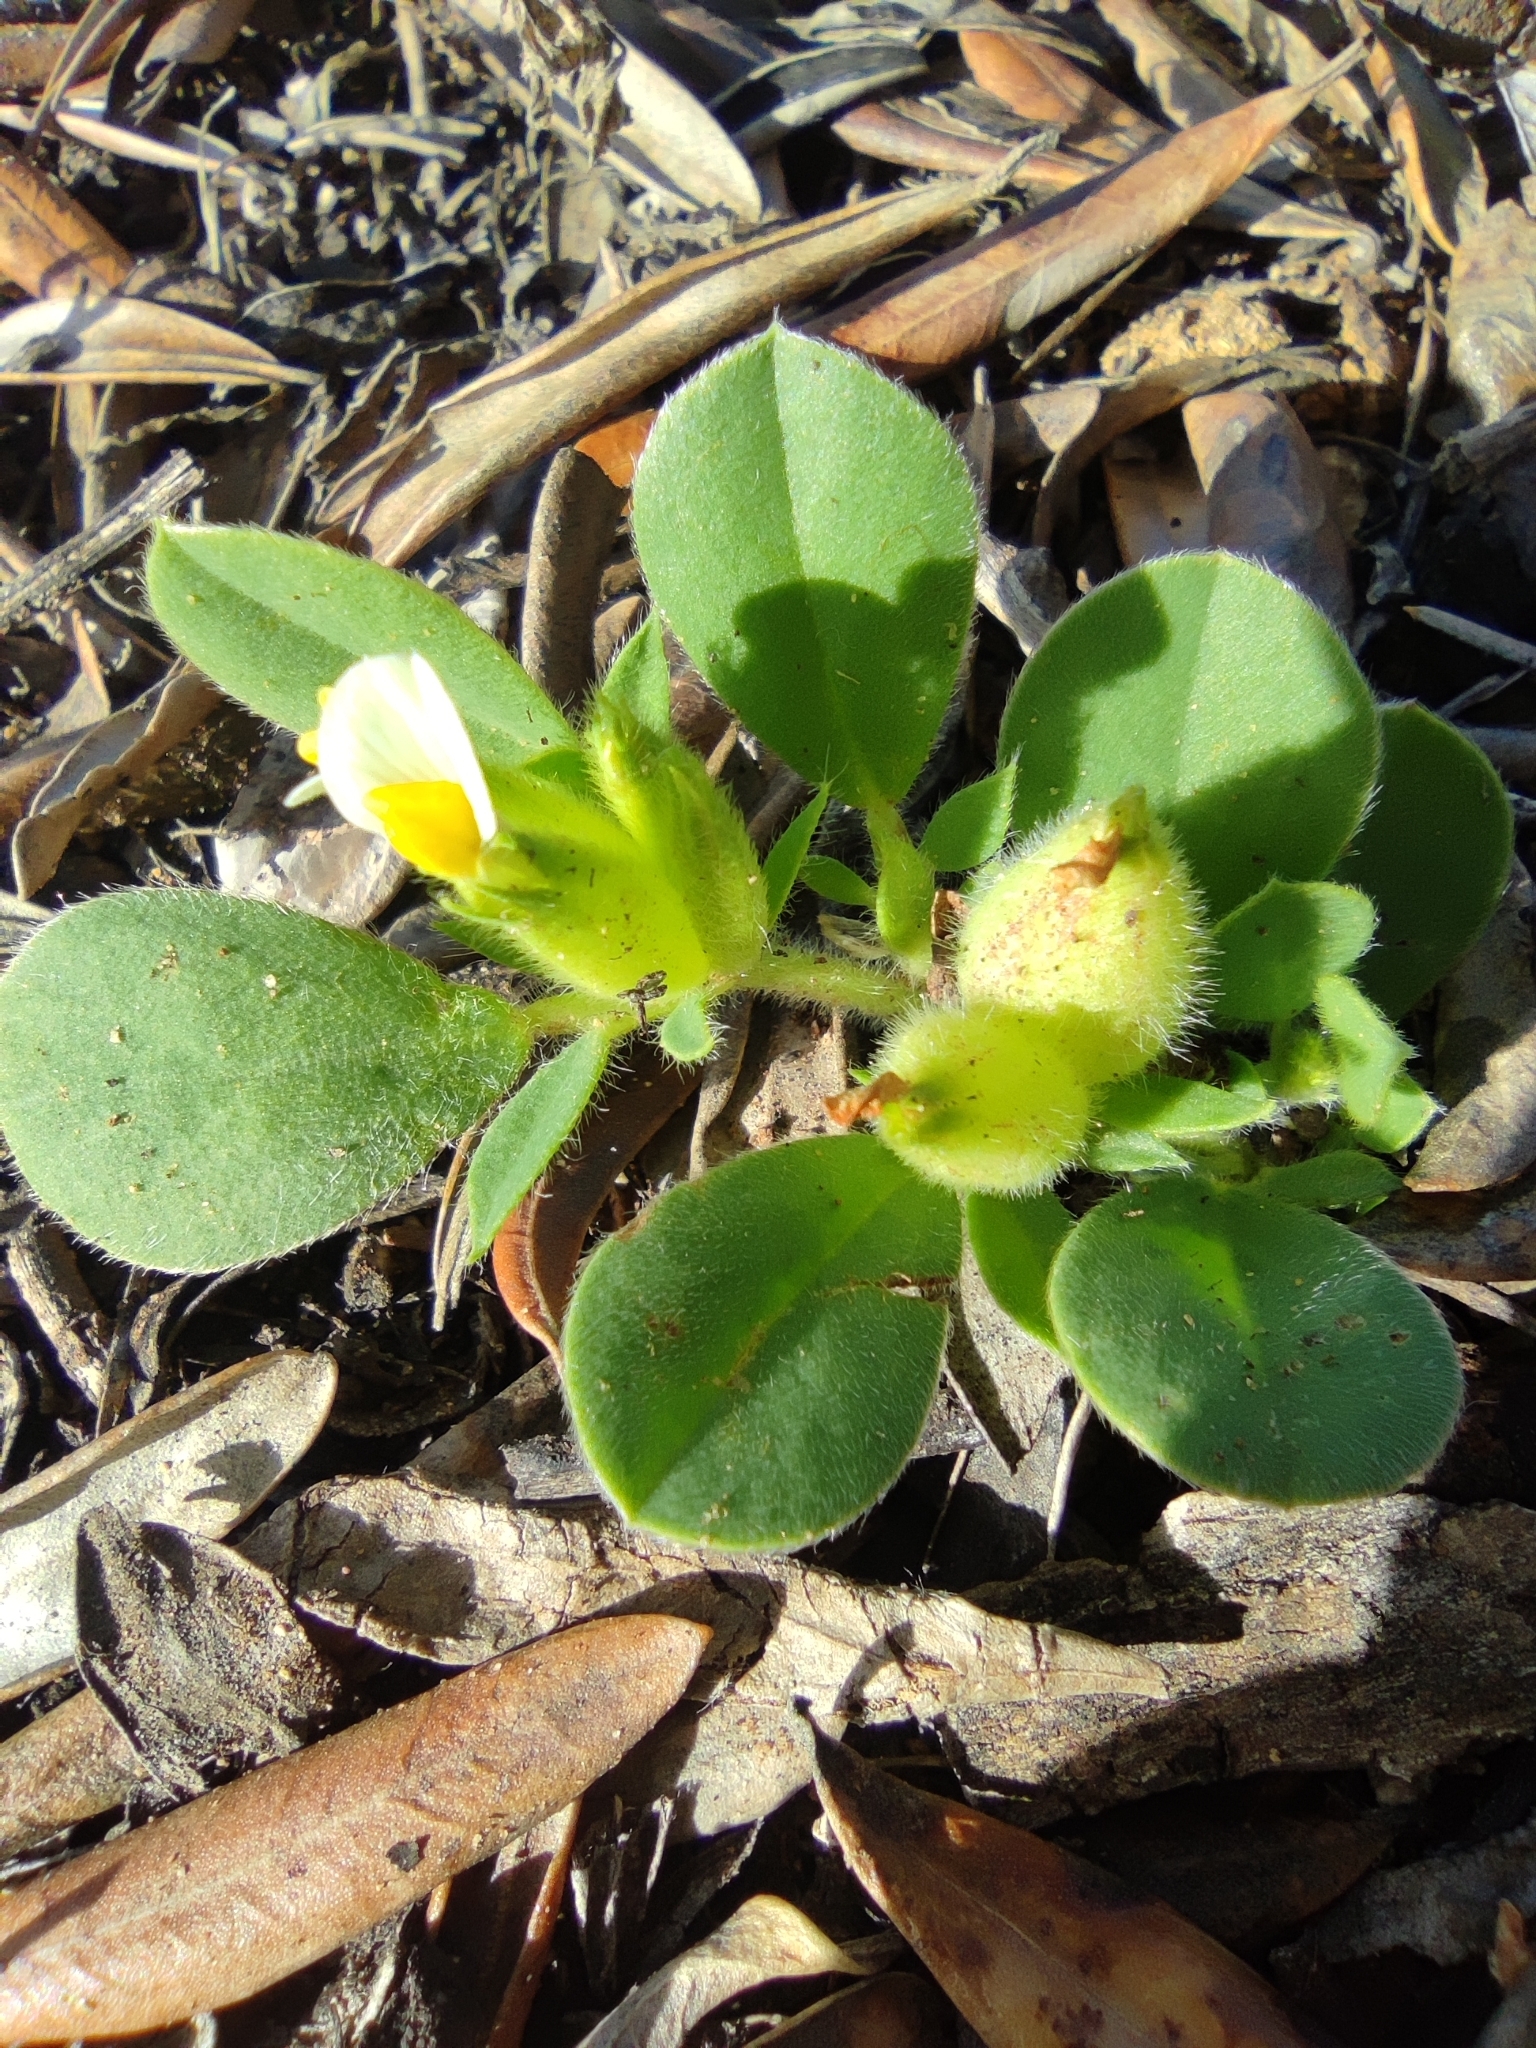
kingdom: Plantae
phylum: Tracheophyta
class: Magnoliopsida
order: Fabales
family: Fabaceae
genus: Tripodion
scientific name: Tripodion tetraphyllum
